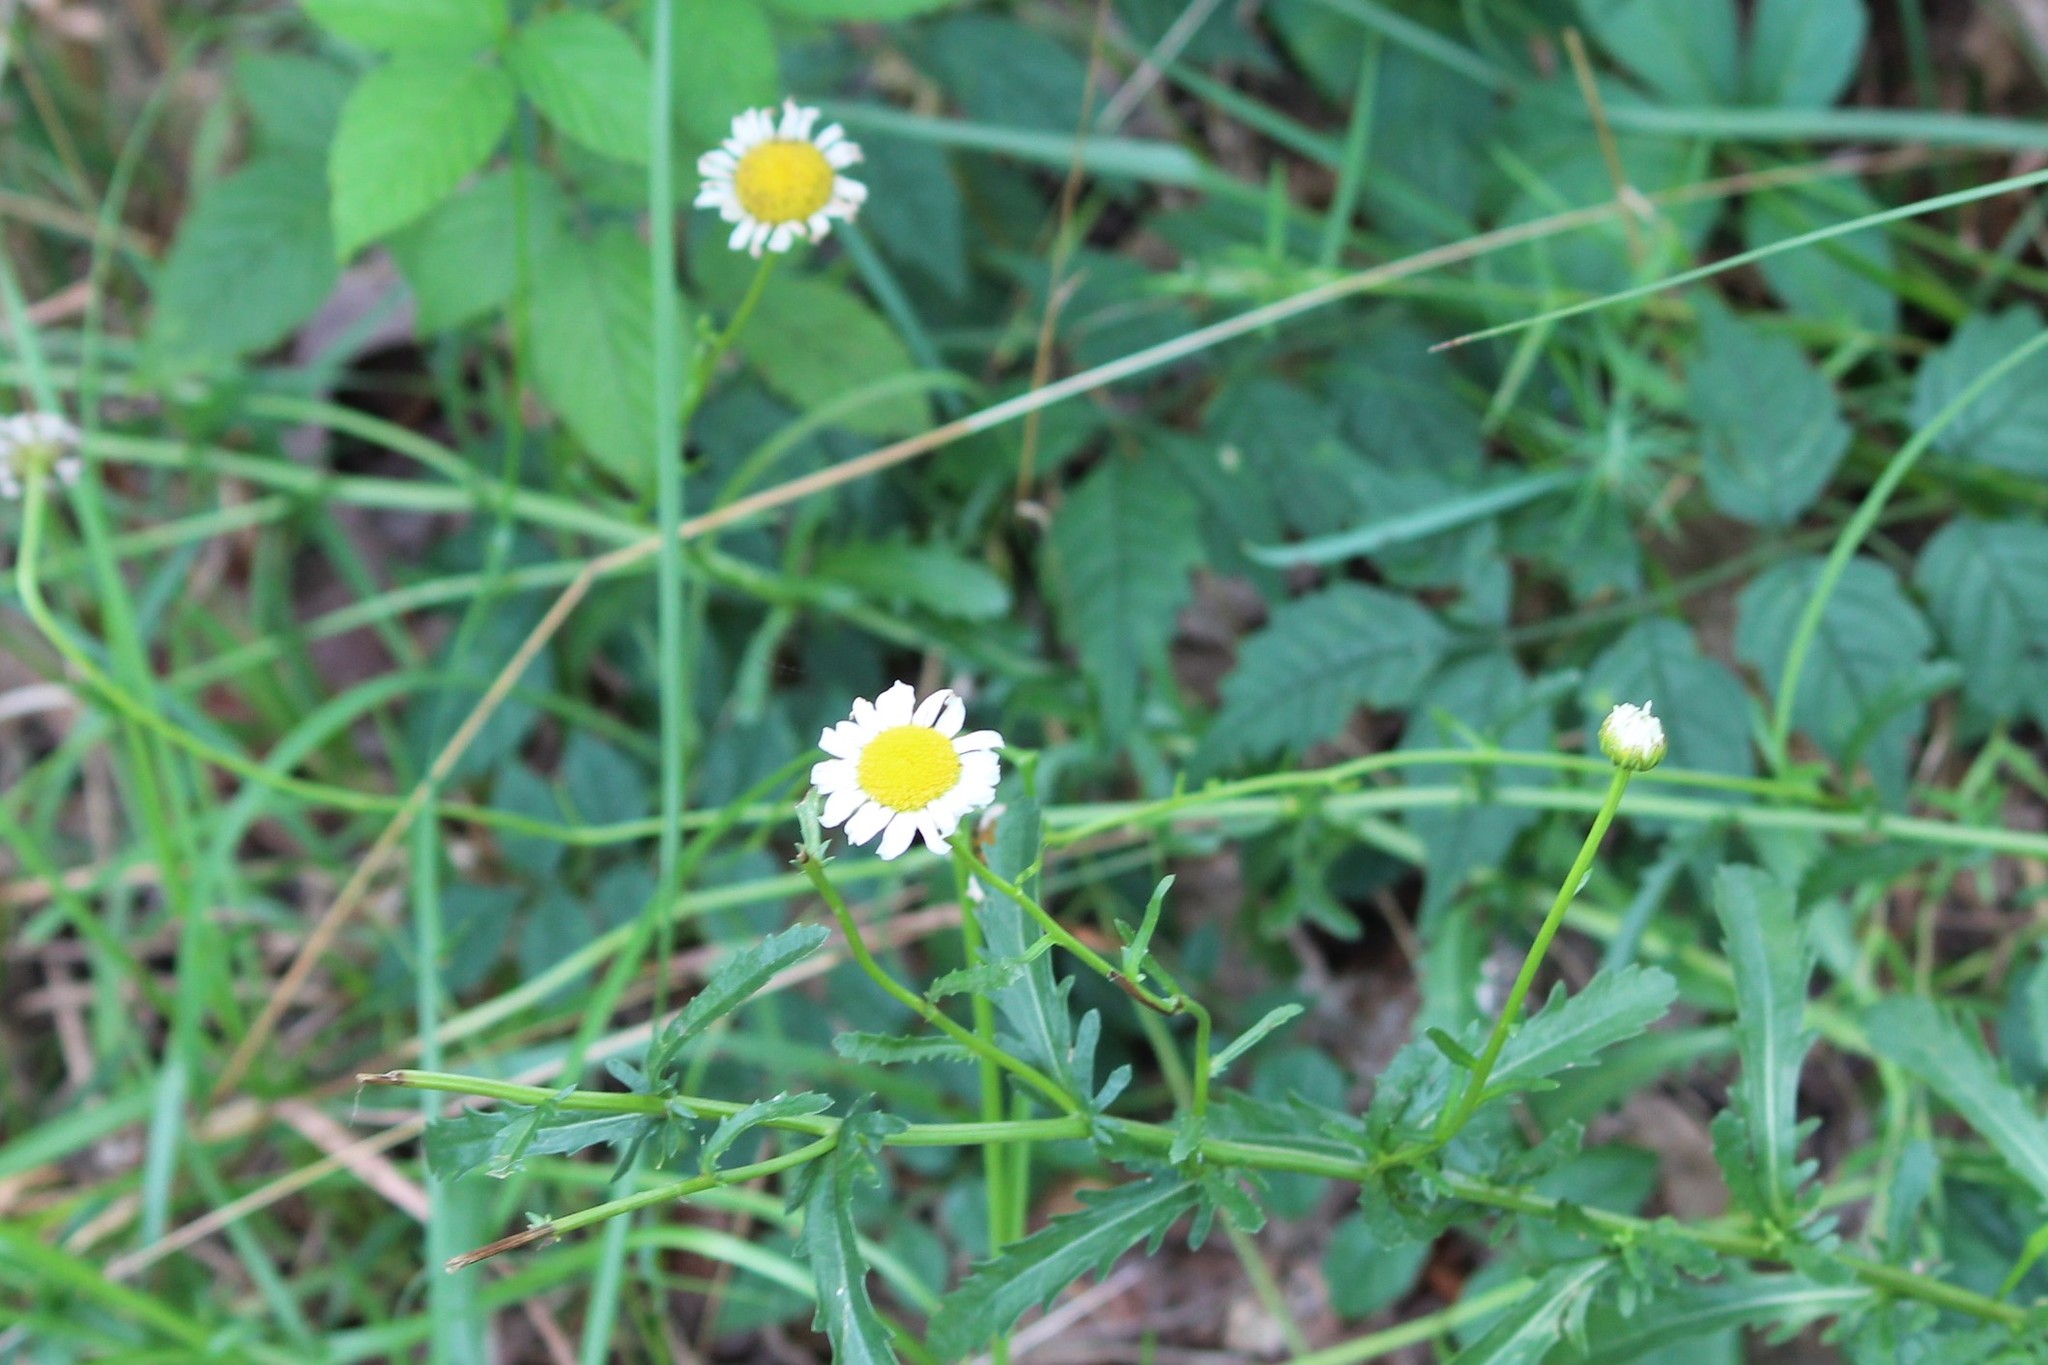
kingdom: Plantae
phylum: Tracheophyta
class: Magnoliopsida
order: Asterales
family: Asteraceae
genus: Leucanthemum
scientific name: Leucanthemum vulgare
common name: Oxeye daisy
